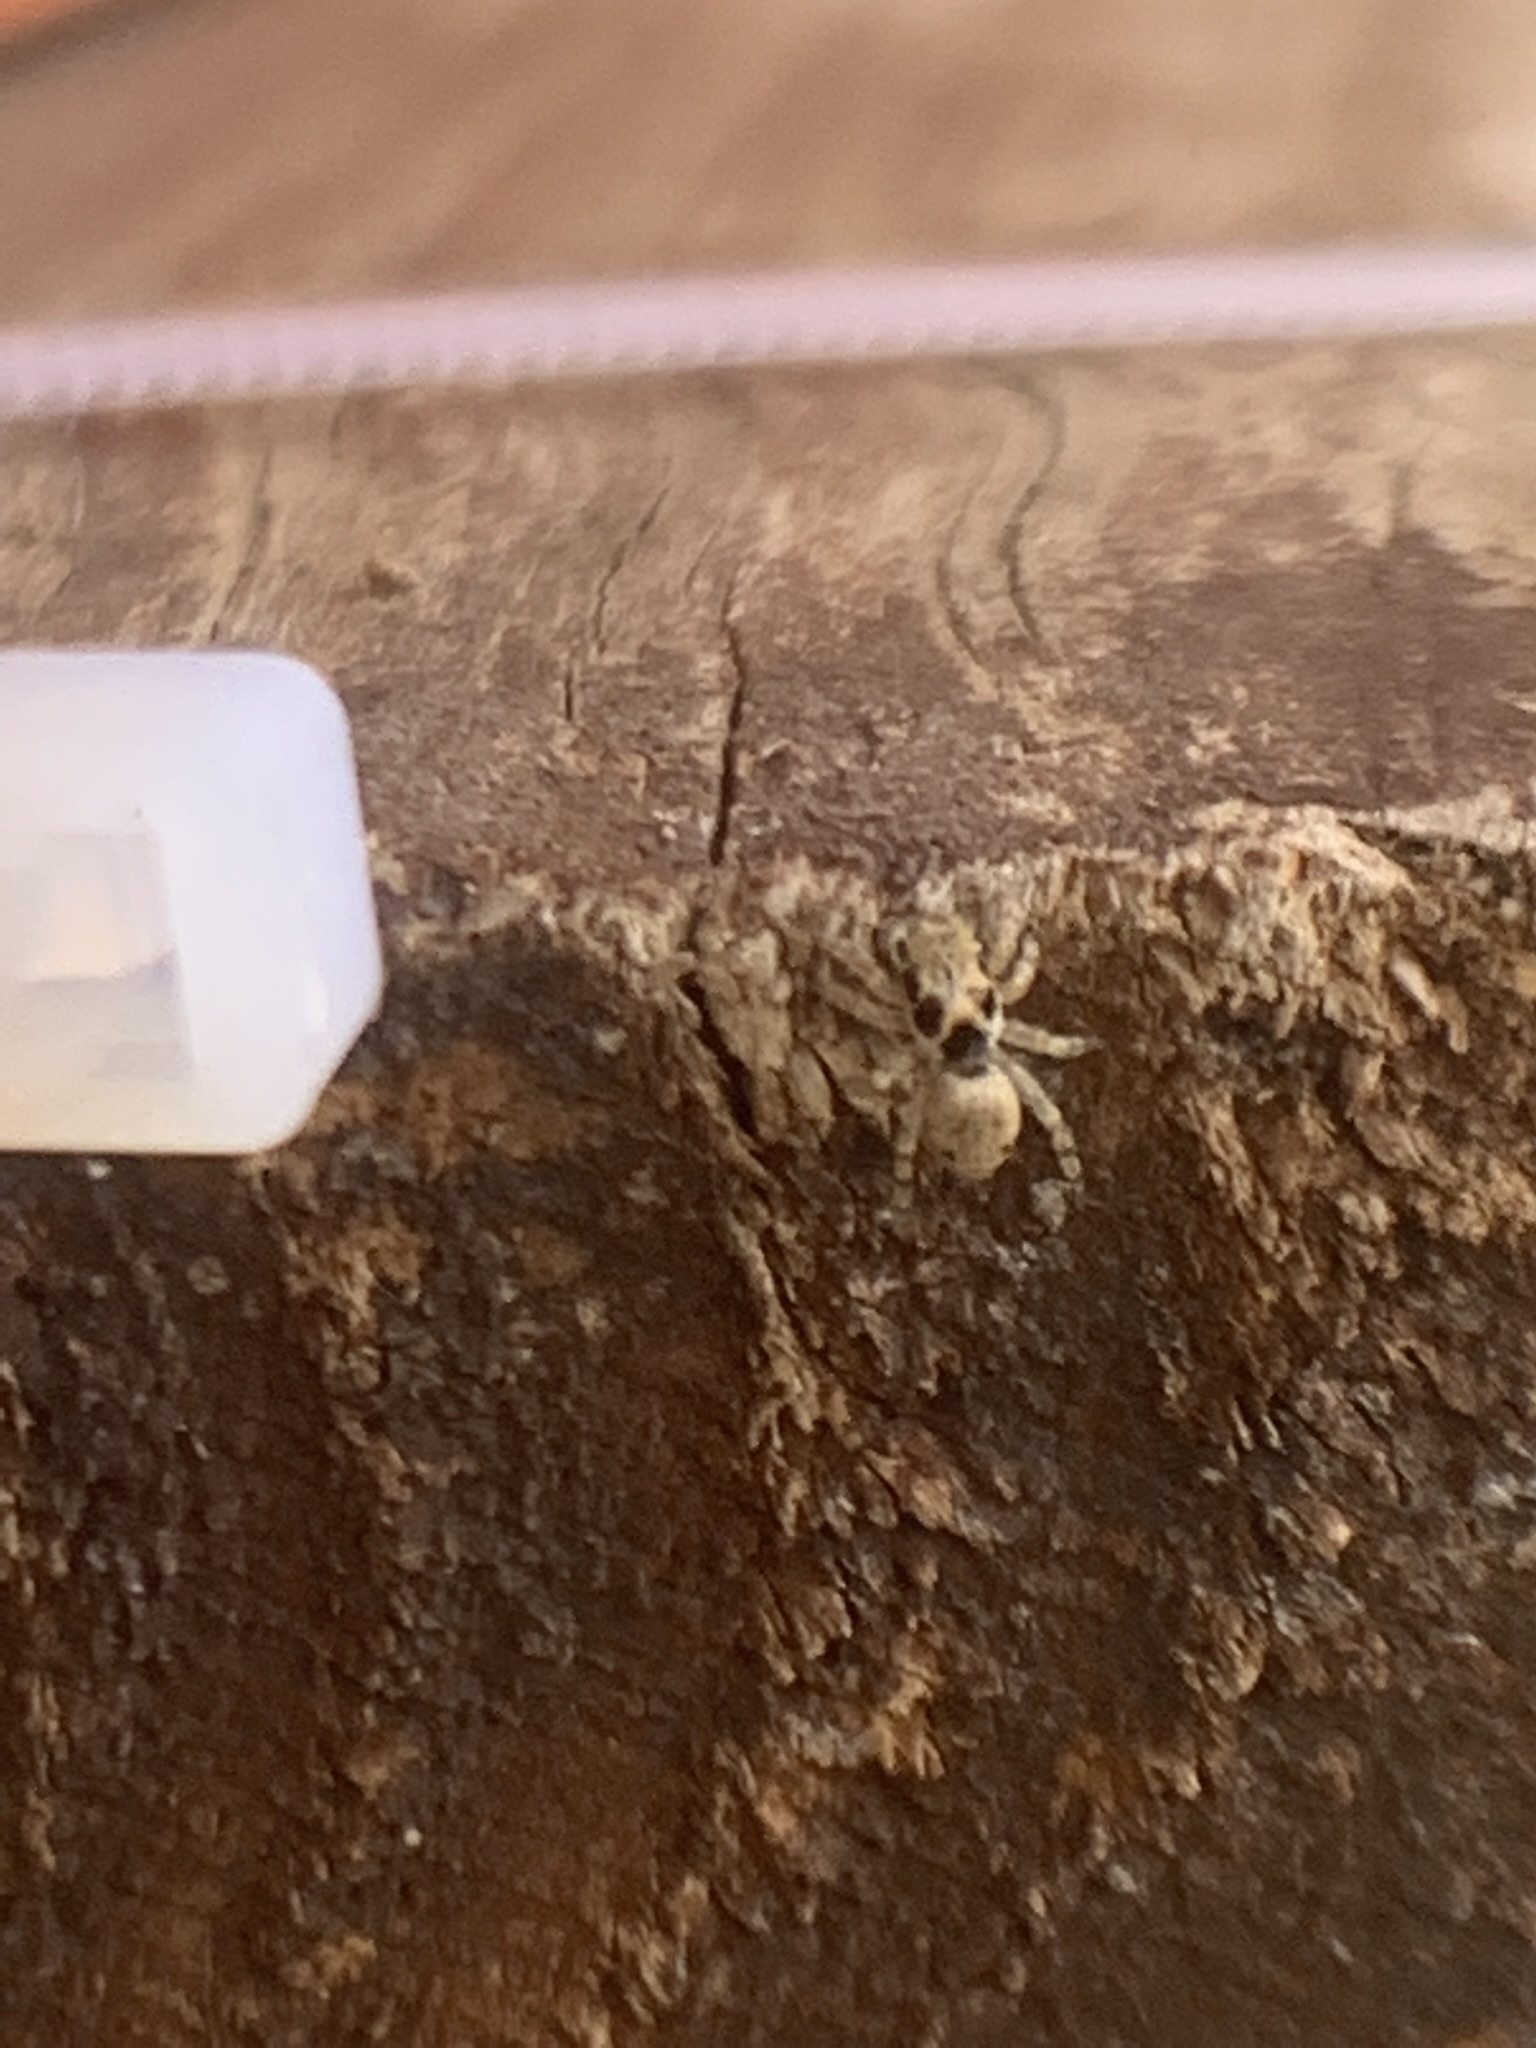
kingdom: Animalia
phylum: Arthropoda
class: Arachnida
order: Araneae
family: Salticidae
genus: Salticus
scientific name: Salticus mutabilis
